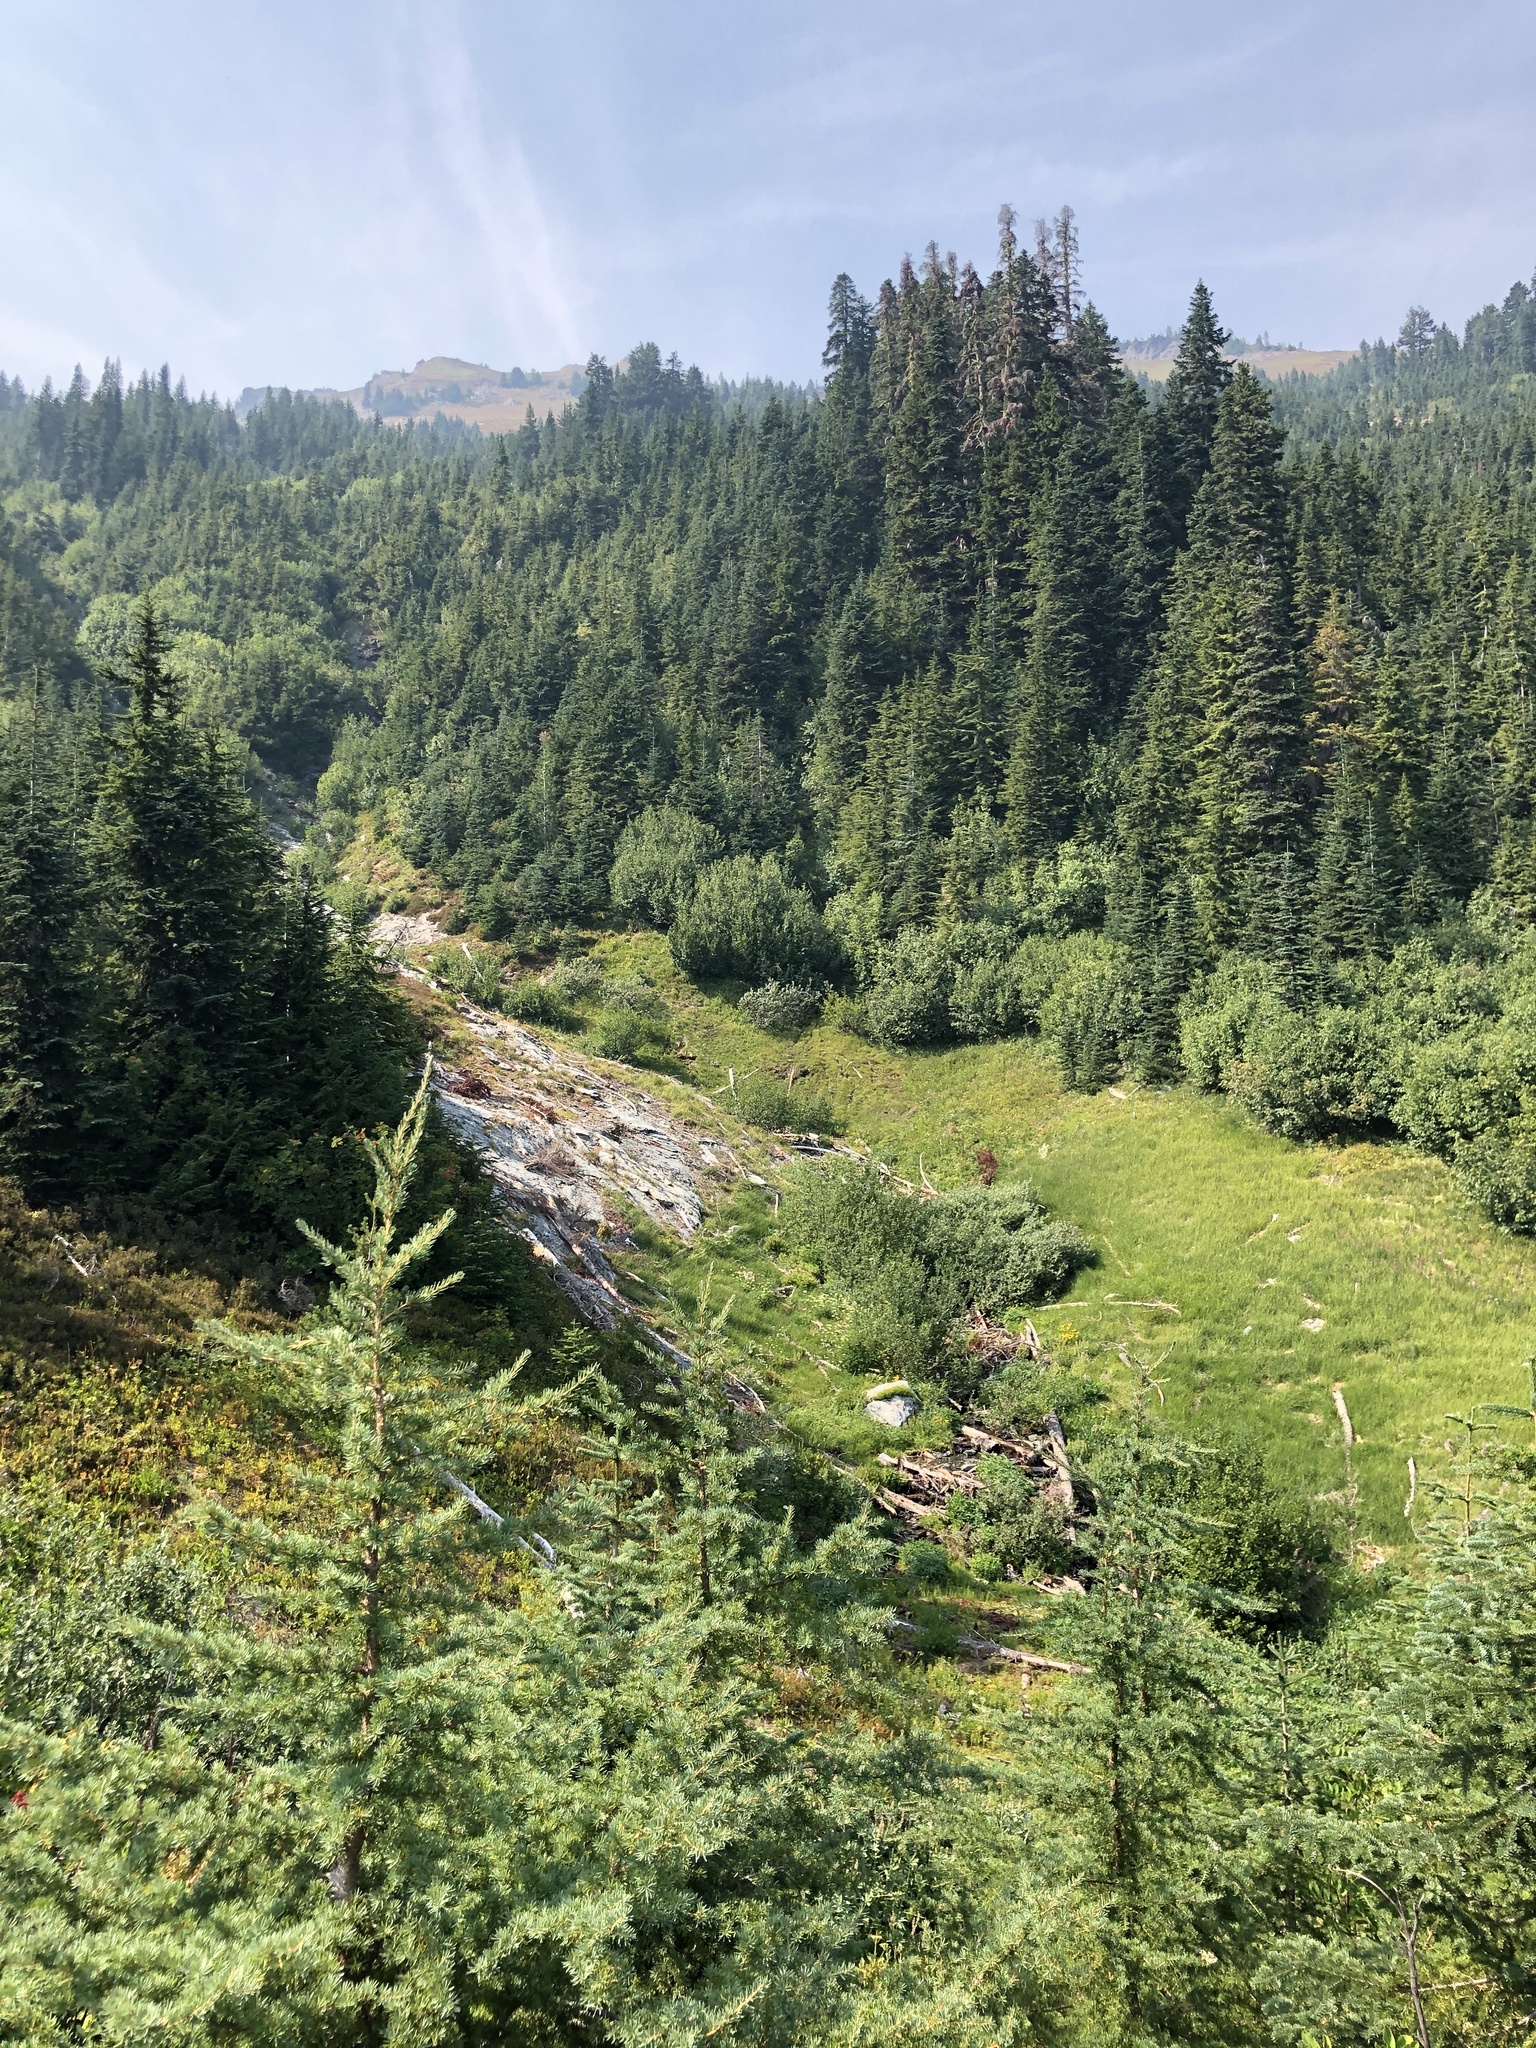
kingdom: Plantae
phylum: Tracheophyta
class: Pinopsida
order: Pinales
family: Pinaceae
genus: Tsuga
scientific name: Tsuga mertensiana
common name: Mountain hemlock
